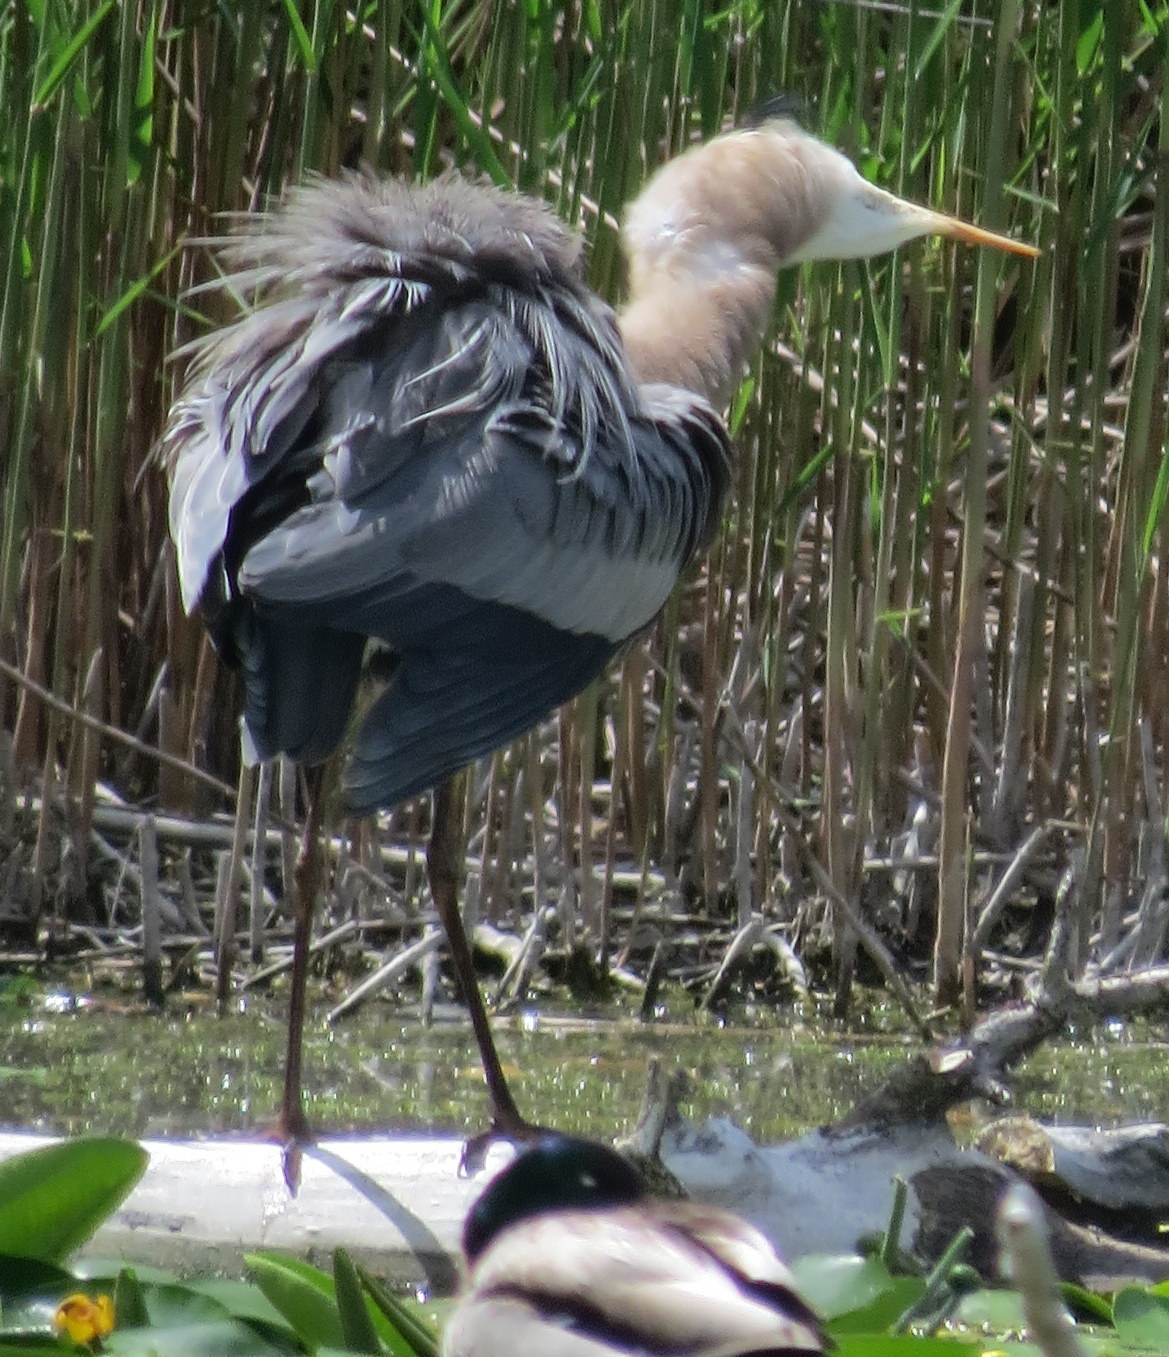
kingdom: Animalia
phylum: Chordata
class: Aves
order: Pelecaniformes
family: Ardeidae
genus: Ardea
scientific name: Ardea herodias
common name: Great blue heron
